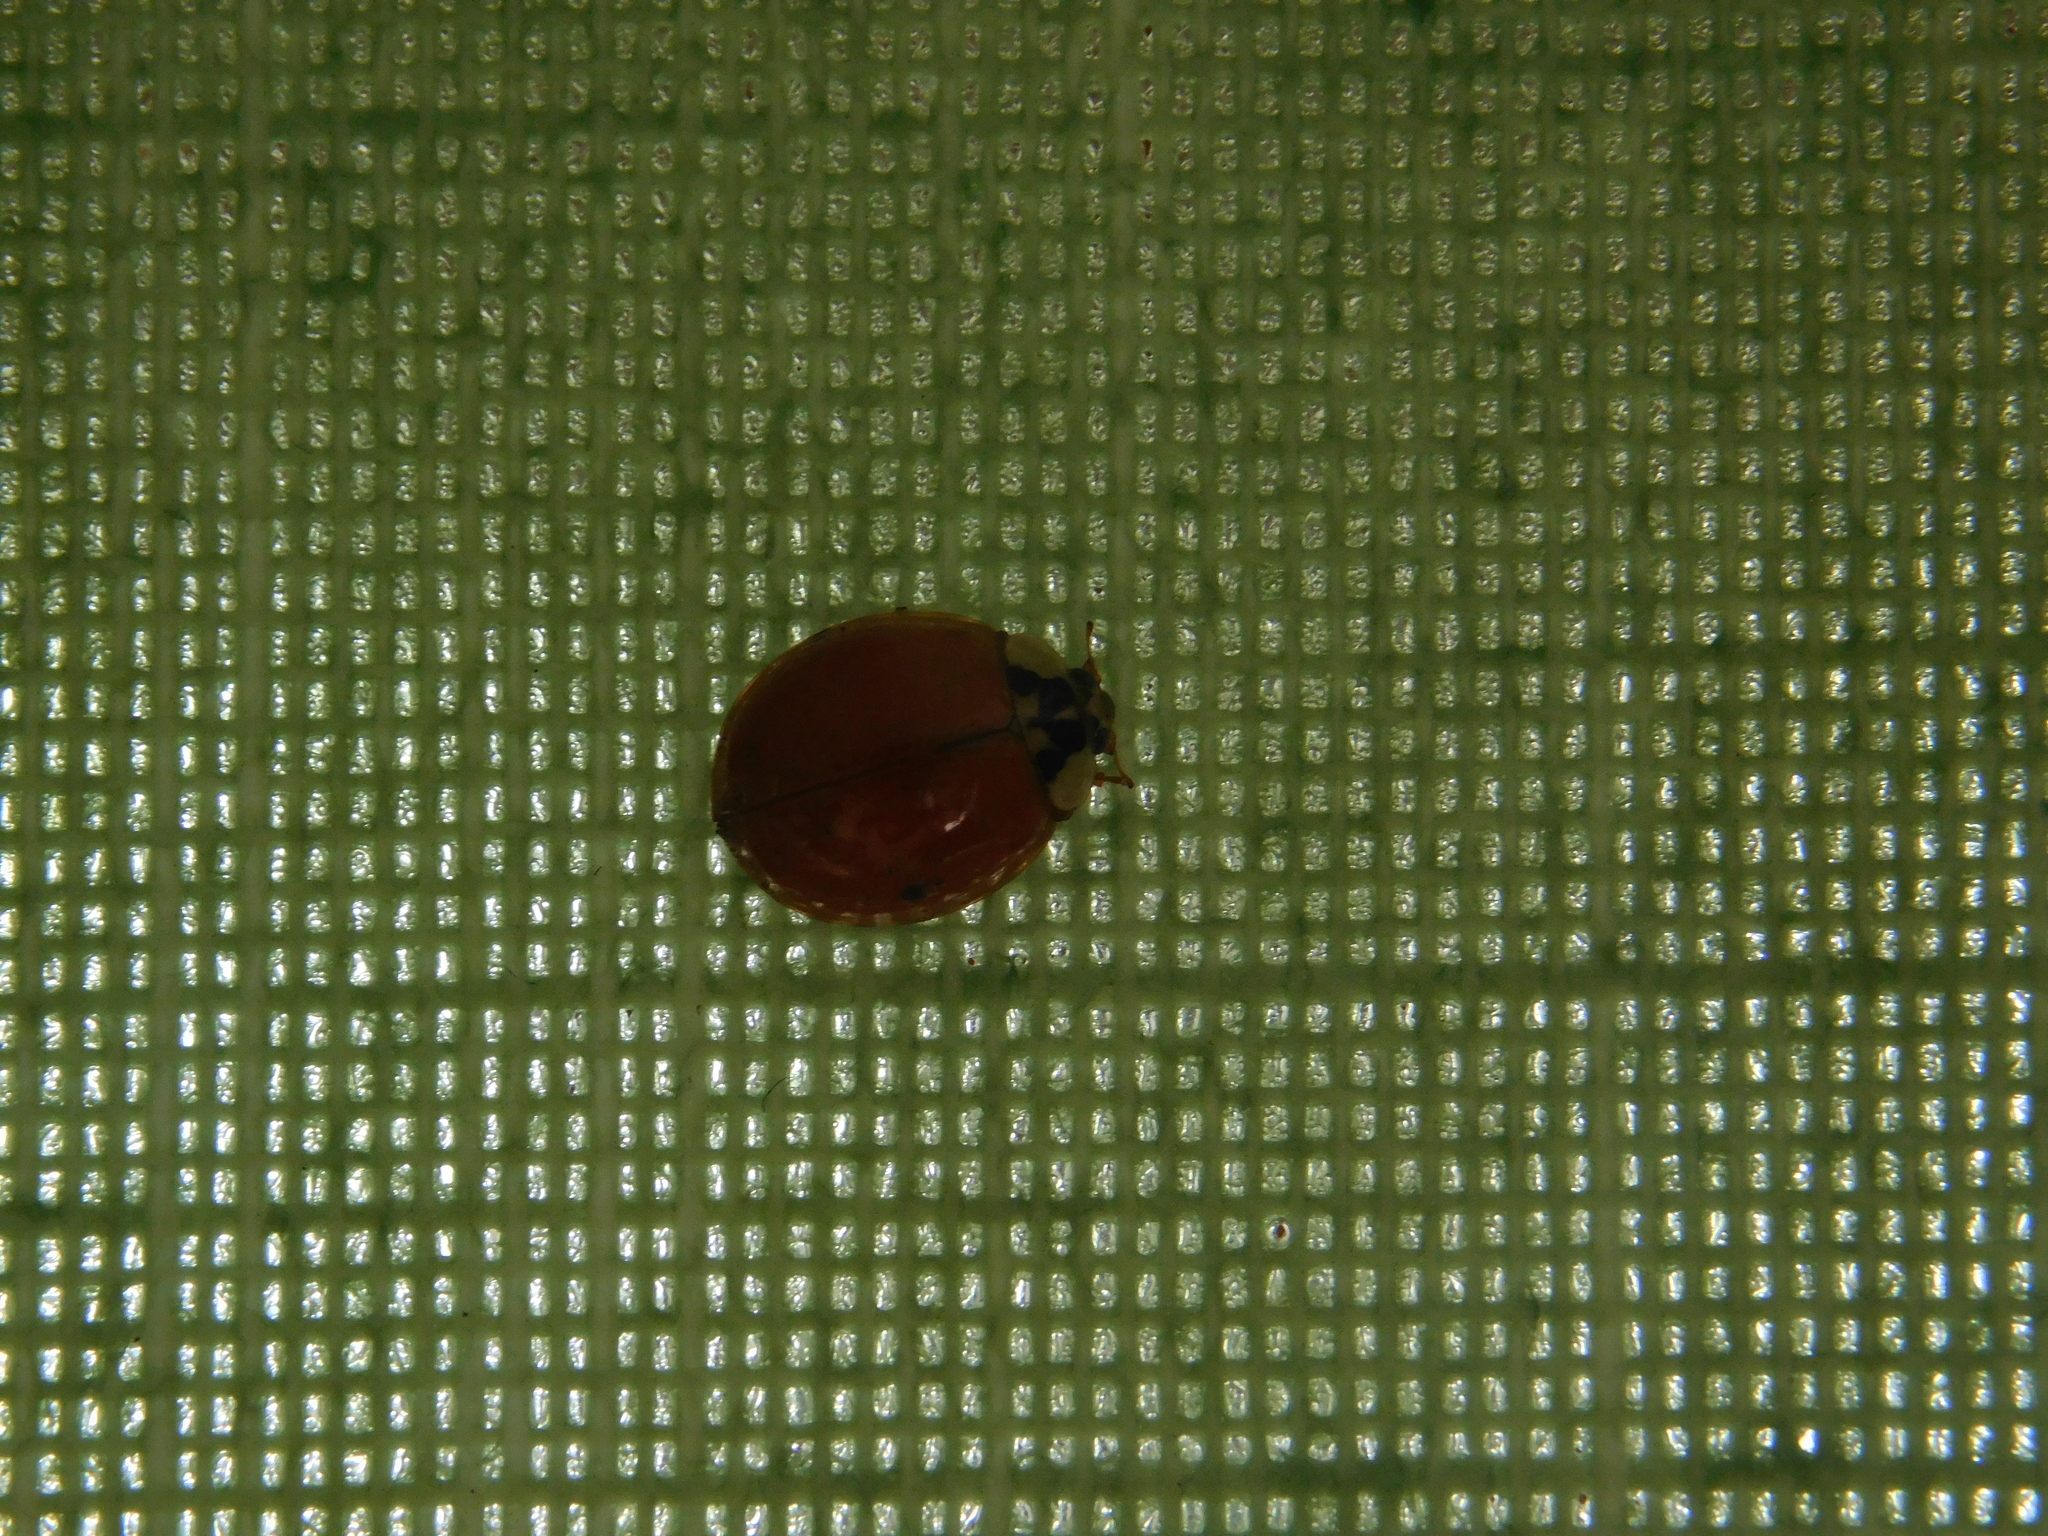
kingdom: Animalia
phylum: Arthropoda
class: Insecta
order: Coleoptera
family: Coccinellidae
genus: Harmonia
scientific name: Harmonia axyridis
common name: Harlequin ladybird
